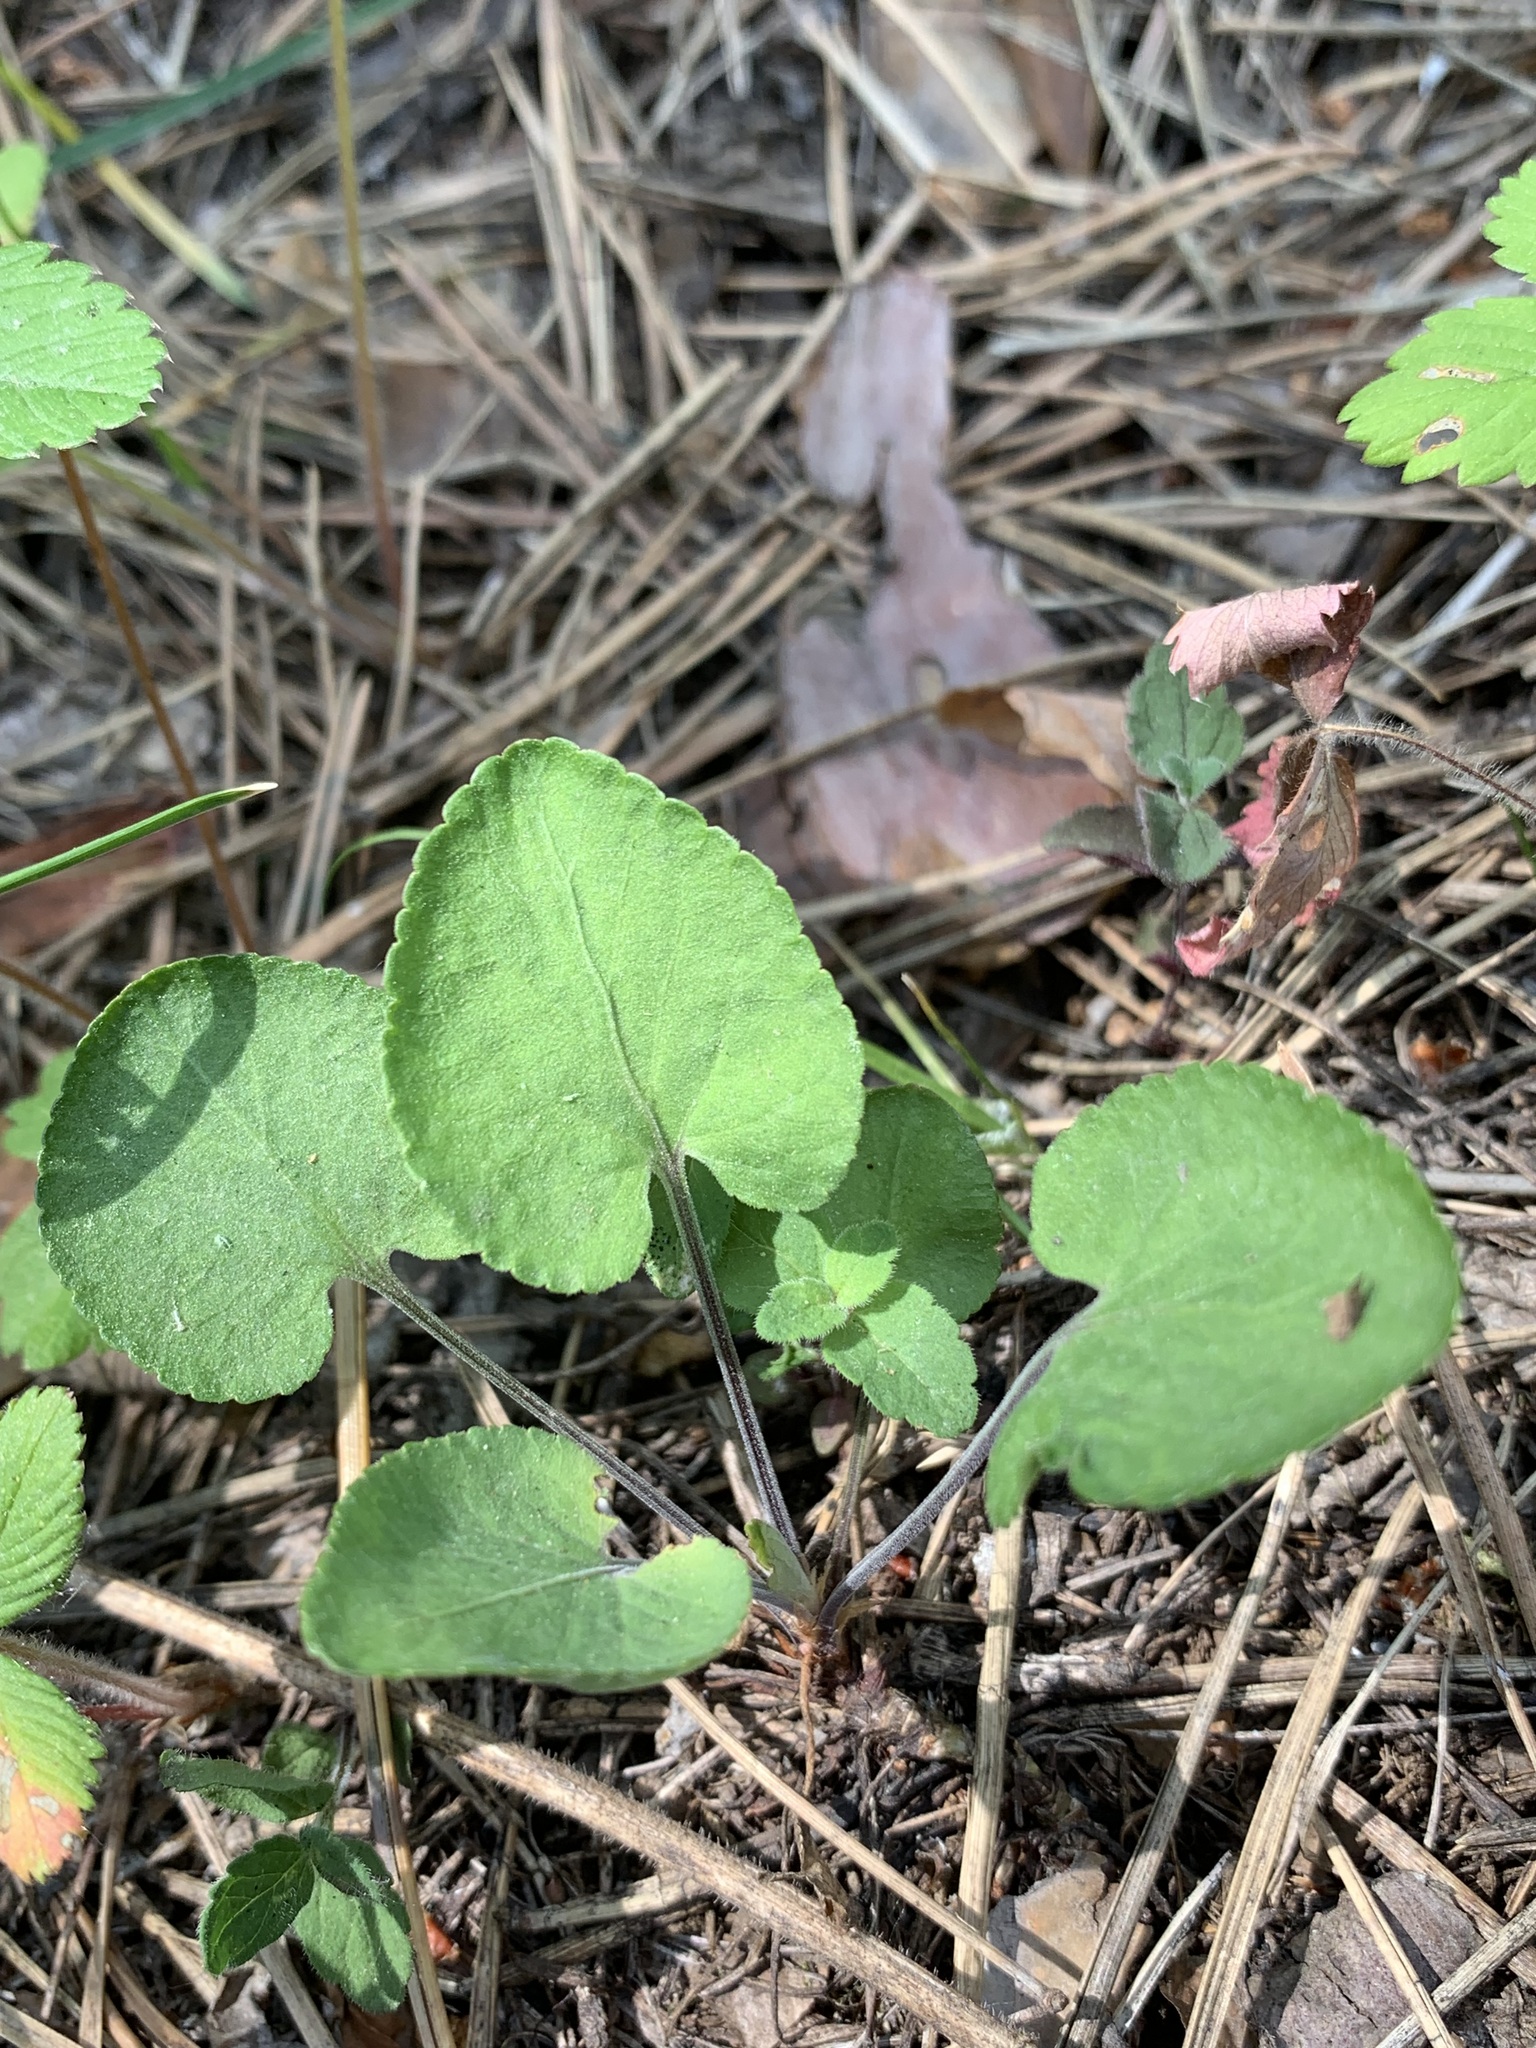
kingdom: Plantae
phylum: Tracheophyta
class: Magnoliopsida
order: Malpighiales
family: Violaceae
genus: Viola
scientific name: Viola rupestris
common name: Teesdale violet
